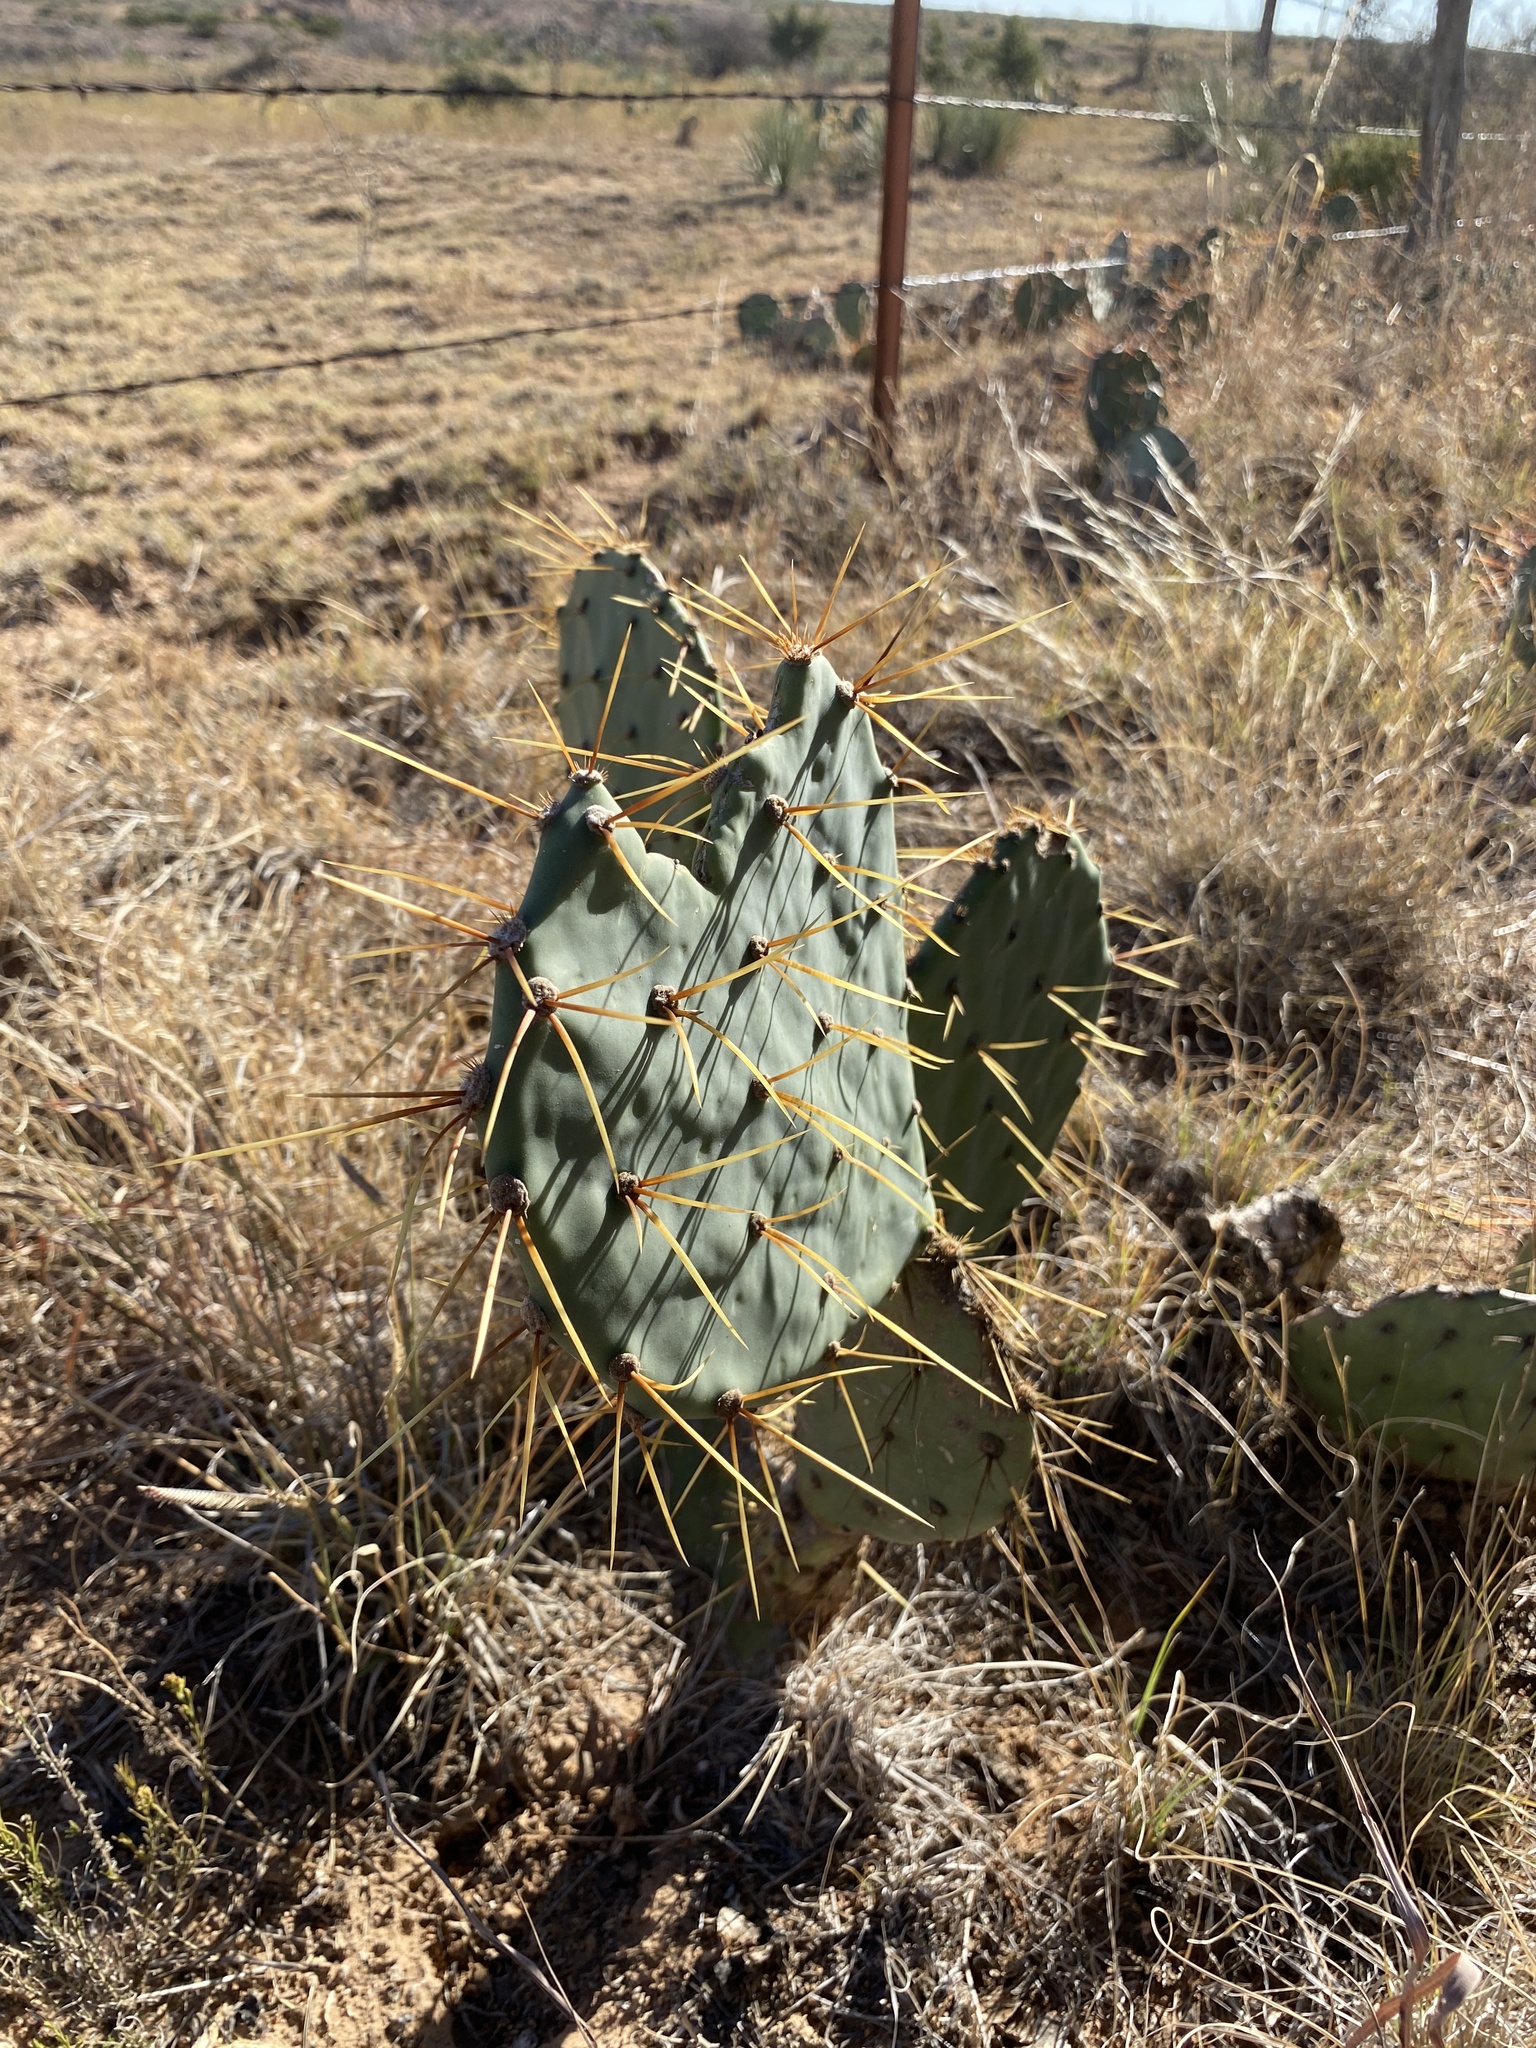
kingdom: Plantae
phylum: Tracheophyta
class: Magnoliopsida
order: Caryophyllales
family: Cactaceae
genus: Opuntia
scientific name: Opuntia engelmannii
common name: Cactus-apple
